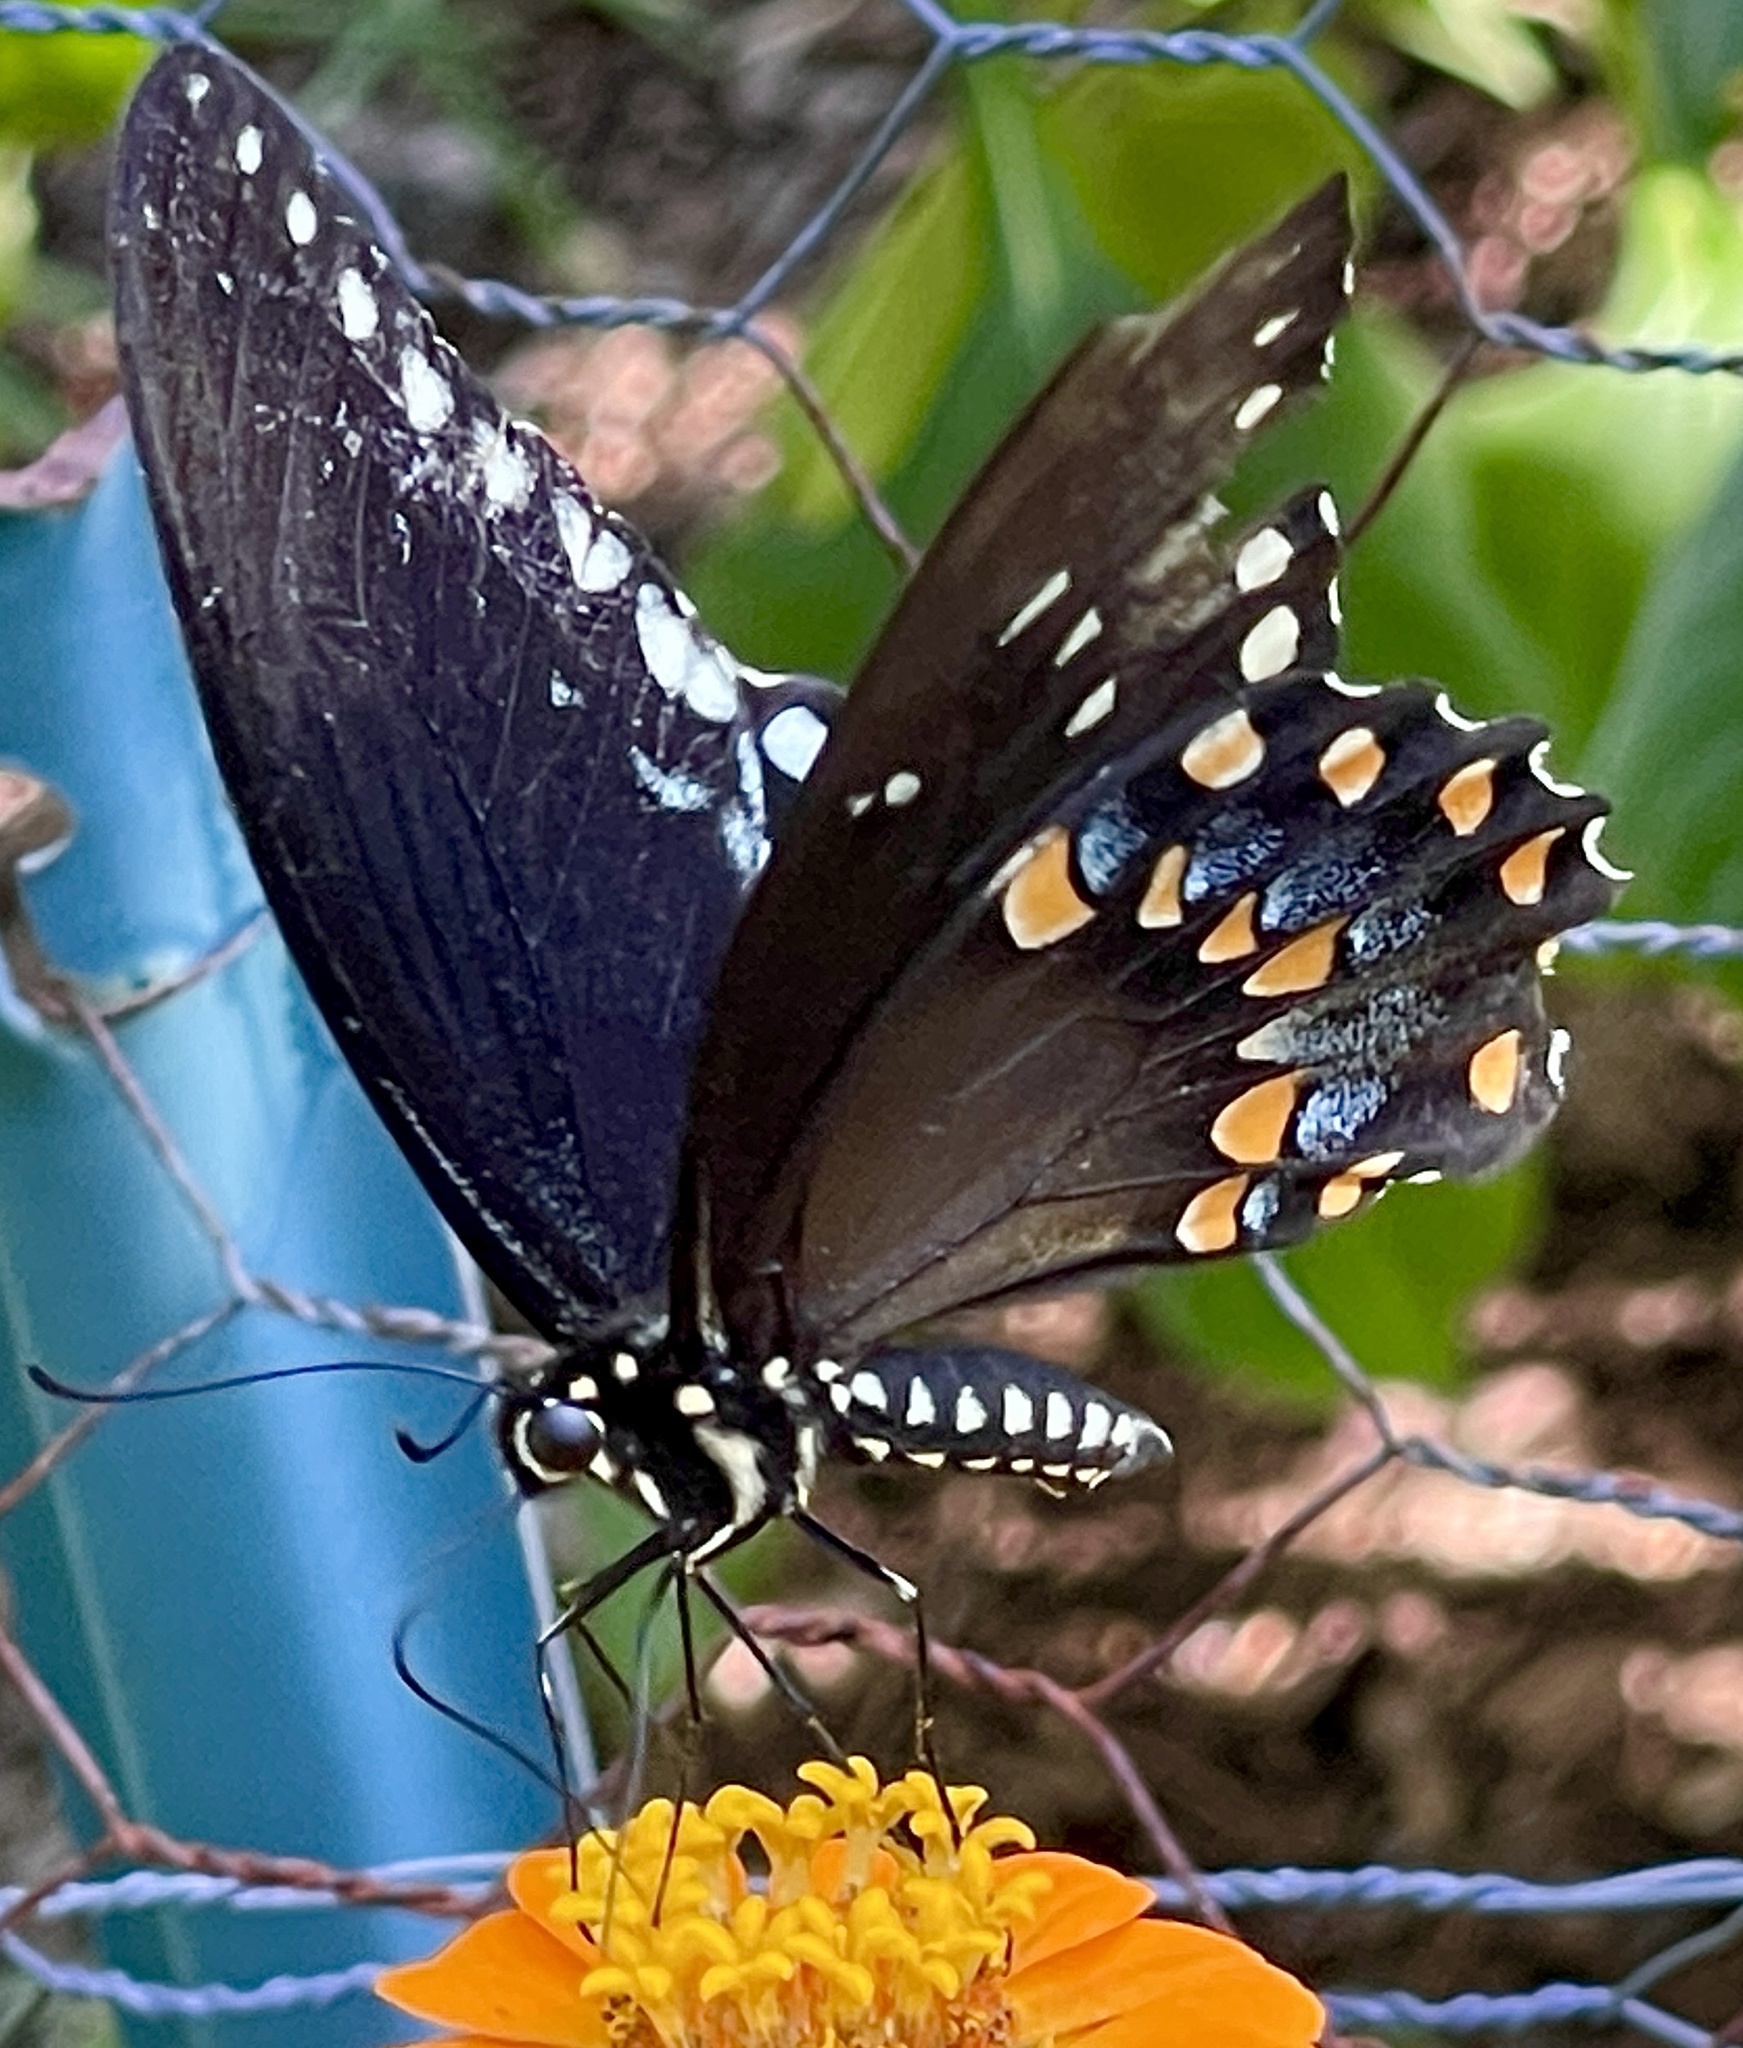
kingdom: Animalia
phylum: Arthropoda
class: Insecta
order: Lepidoptera
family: Papilionidae
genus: Papilio
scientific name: Papilio troilus
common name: Spicebush swallowtail
